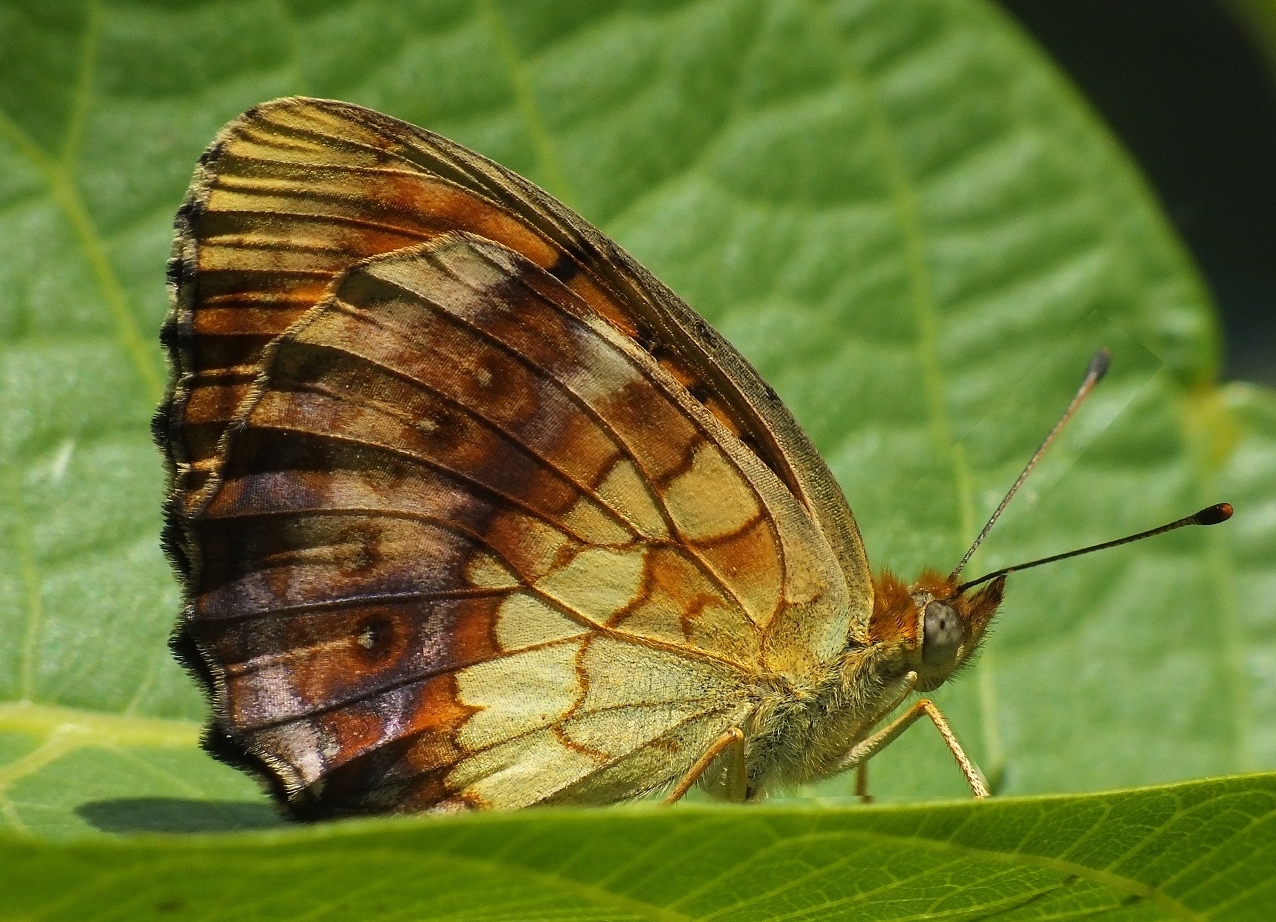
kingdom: Animalia
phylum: Arthropoda
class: Insecta
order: Lepidoptera
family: Nymphalidae
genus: Brenthis
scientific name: Brenthis daphne
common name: Marbled fritillary
